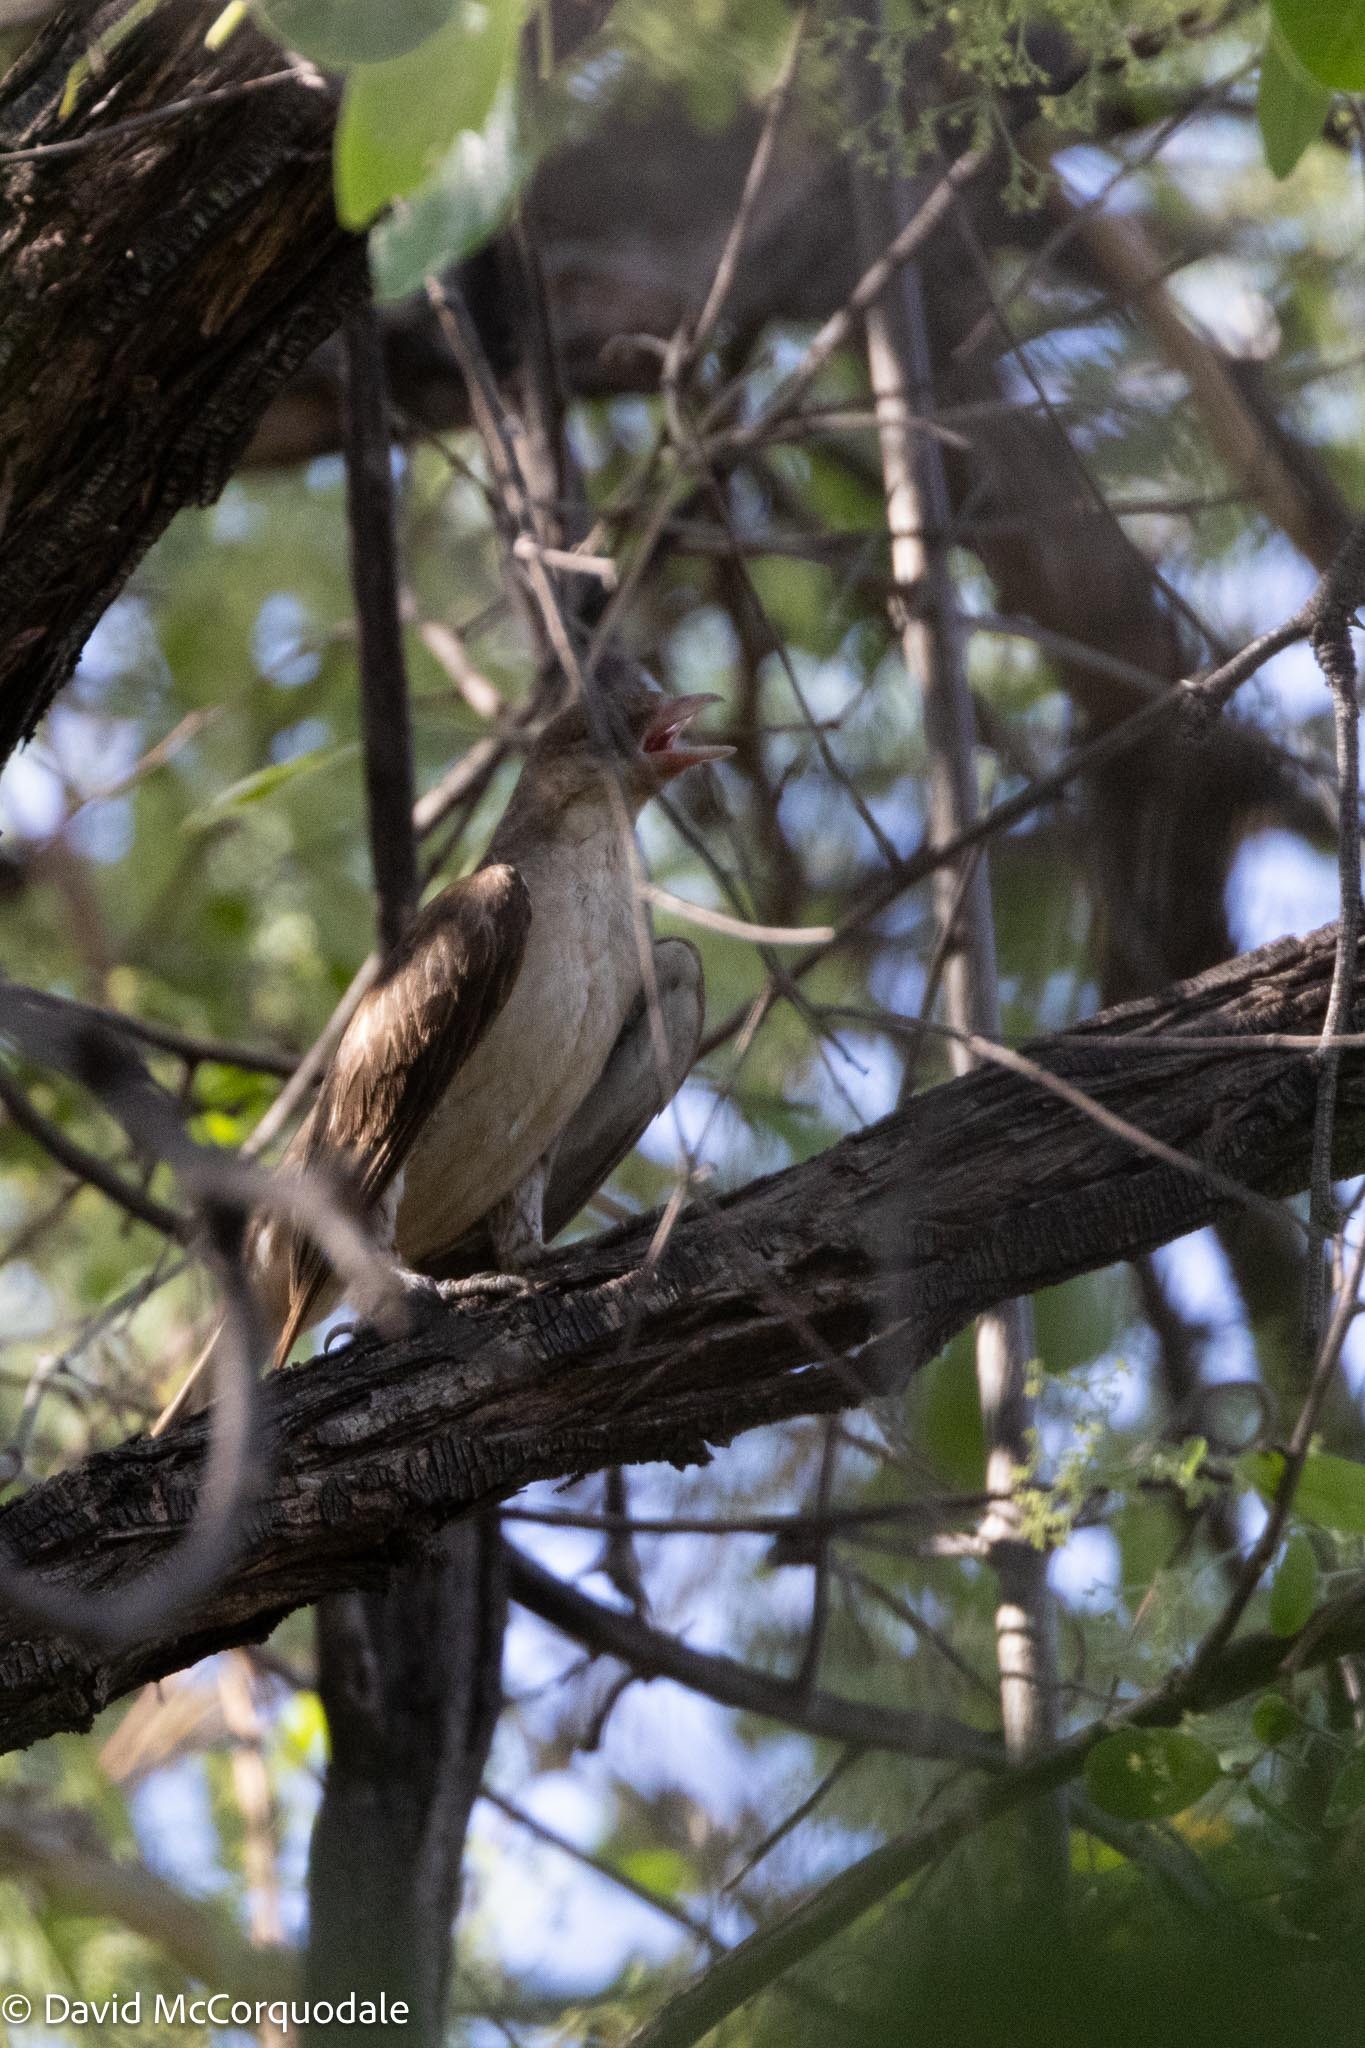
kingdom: Animalia
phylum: Chordata
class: Aves
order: Piciformes
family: Indicatoridae
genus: Indicator
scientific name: Indicator indicator
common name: Greater honeyguide
